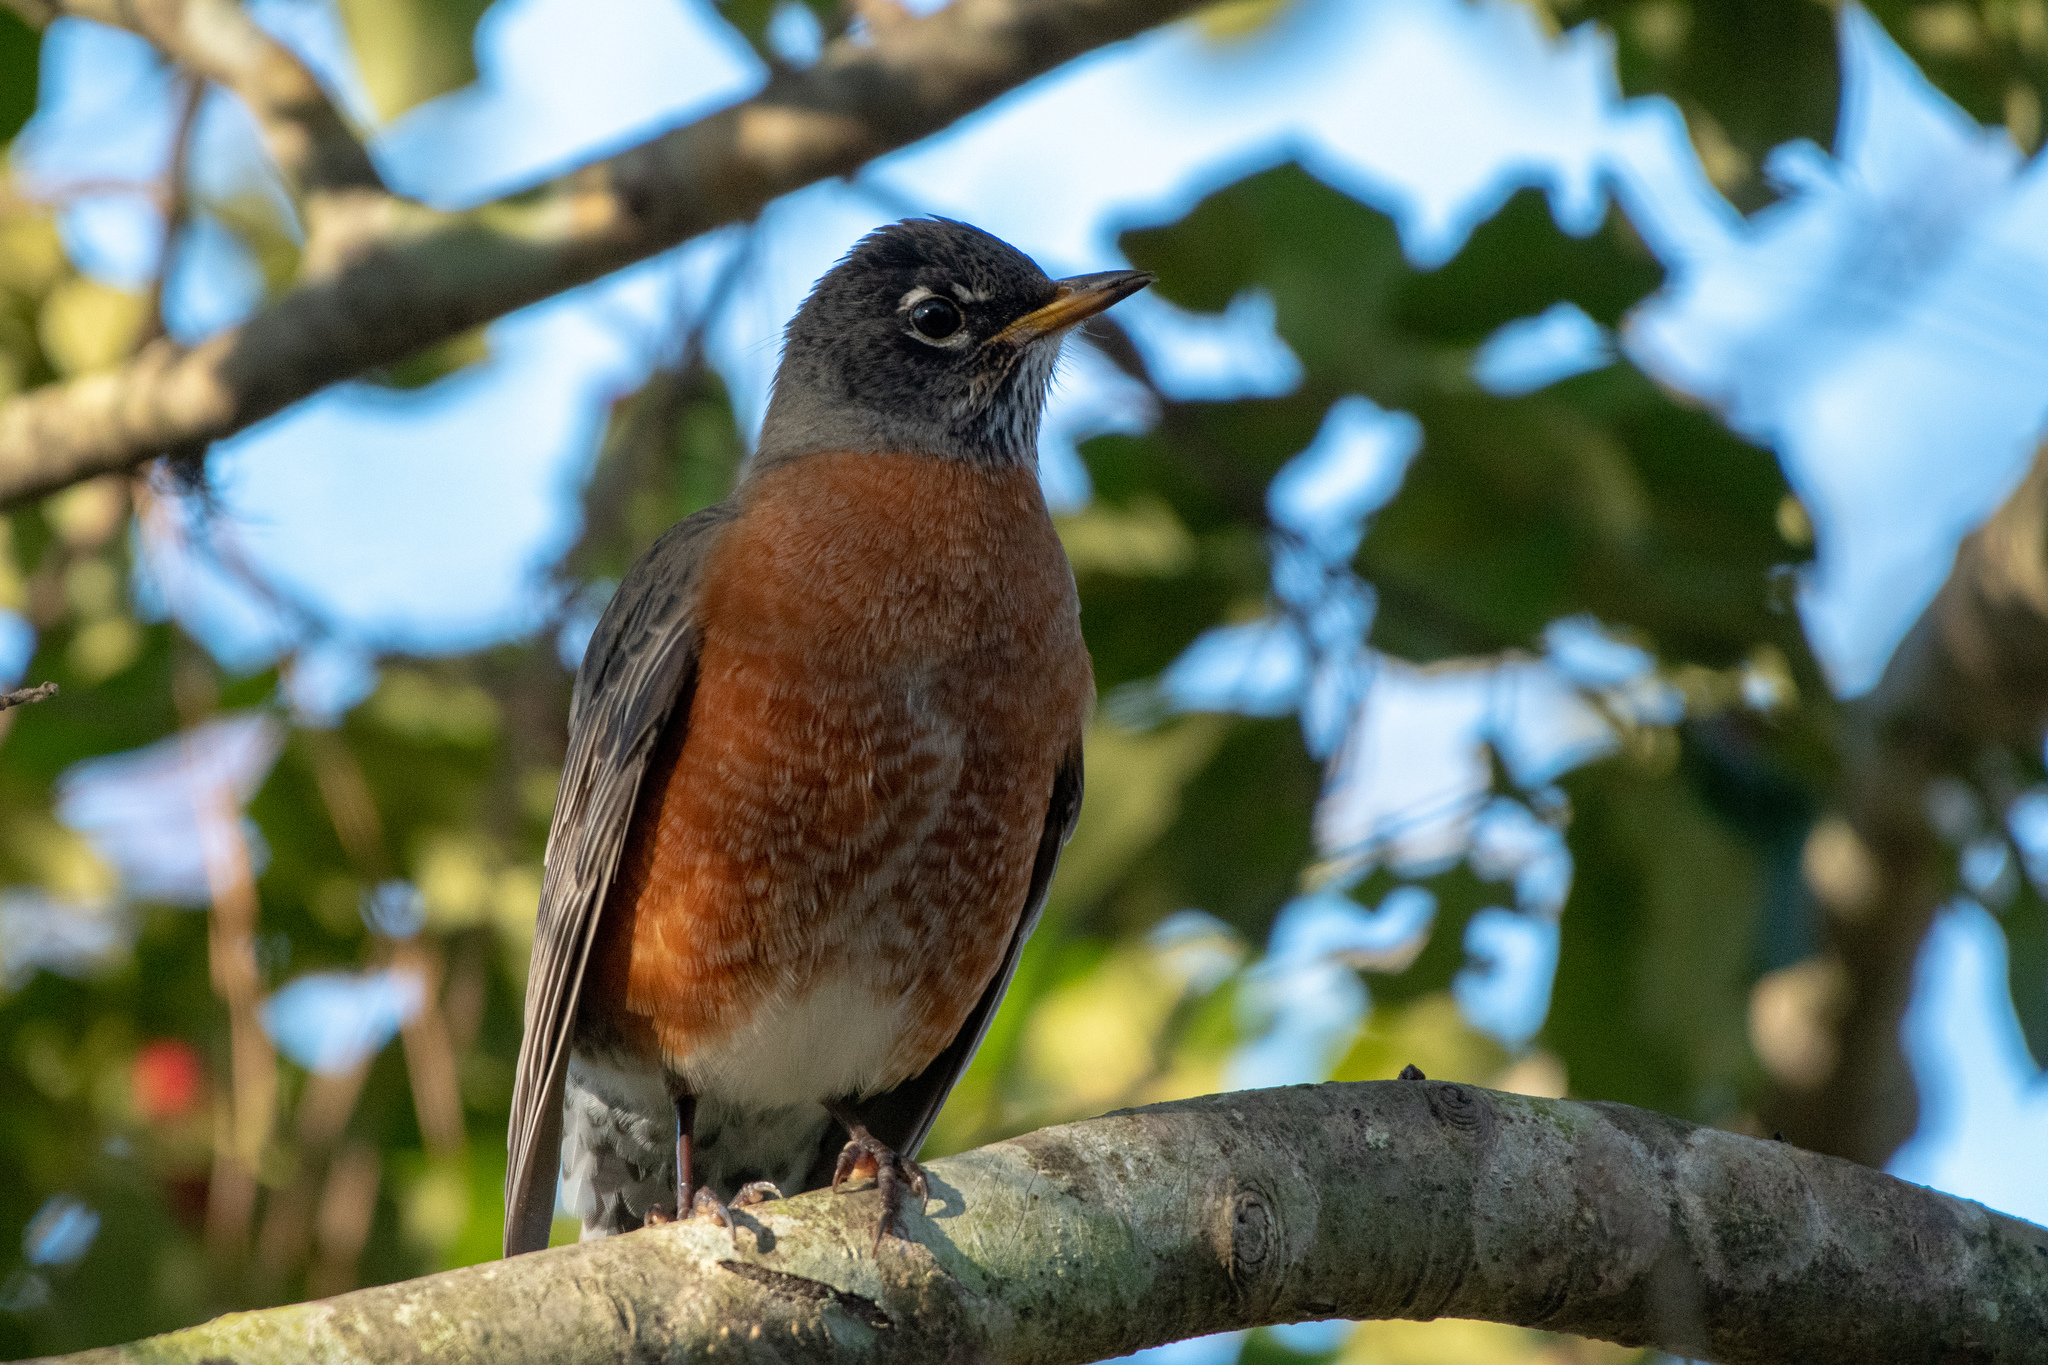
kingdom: Animalia
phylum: Chordata
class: Aves
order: Passeriformes
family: Turdidae
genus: Turdus
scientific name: Turdus migratorius
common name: American robin
